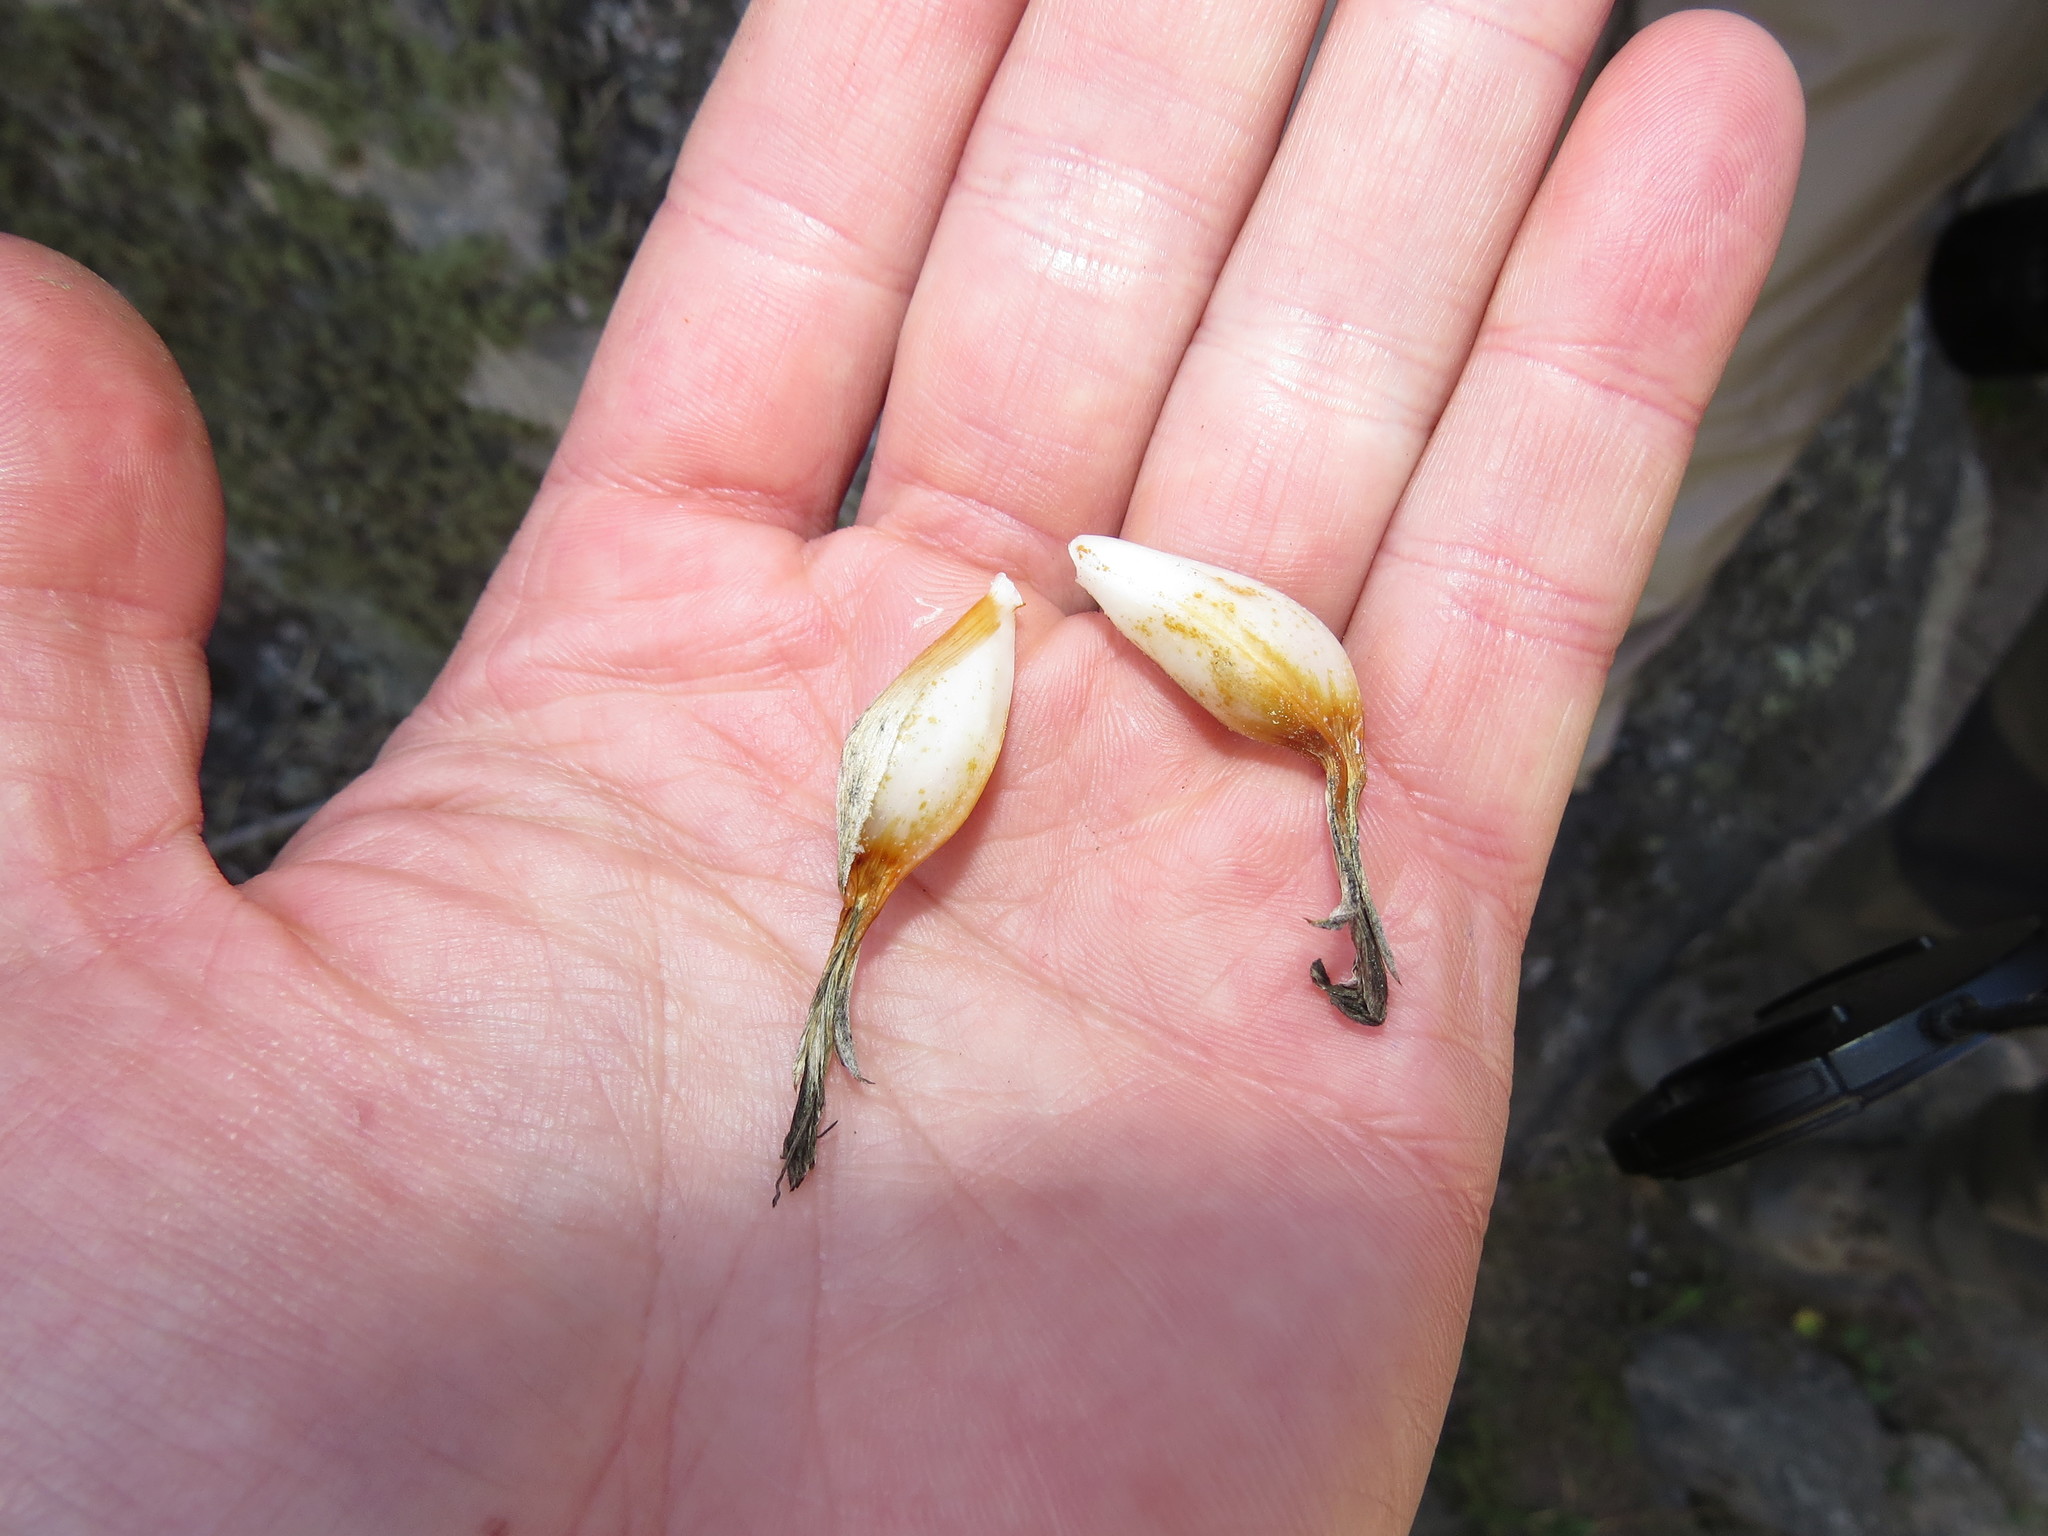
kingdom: Plantae
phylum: Tracheophyta
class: Liliopsida
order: Poales
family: Bromeliaceae
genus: Ochagavia
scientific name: Ochagavia litoralis
